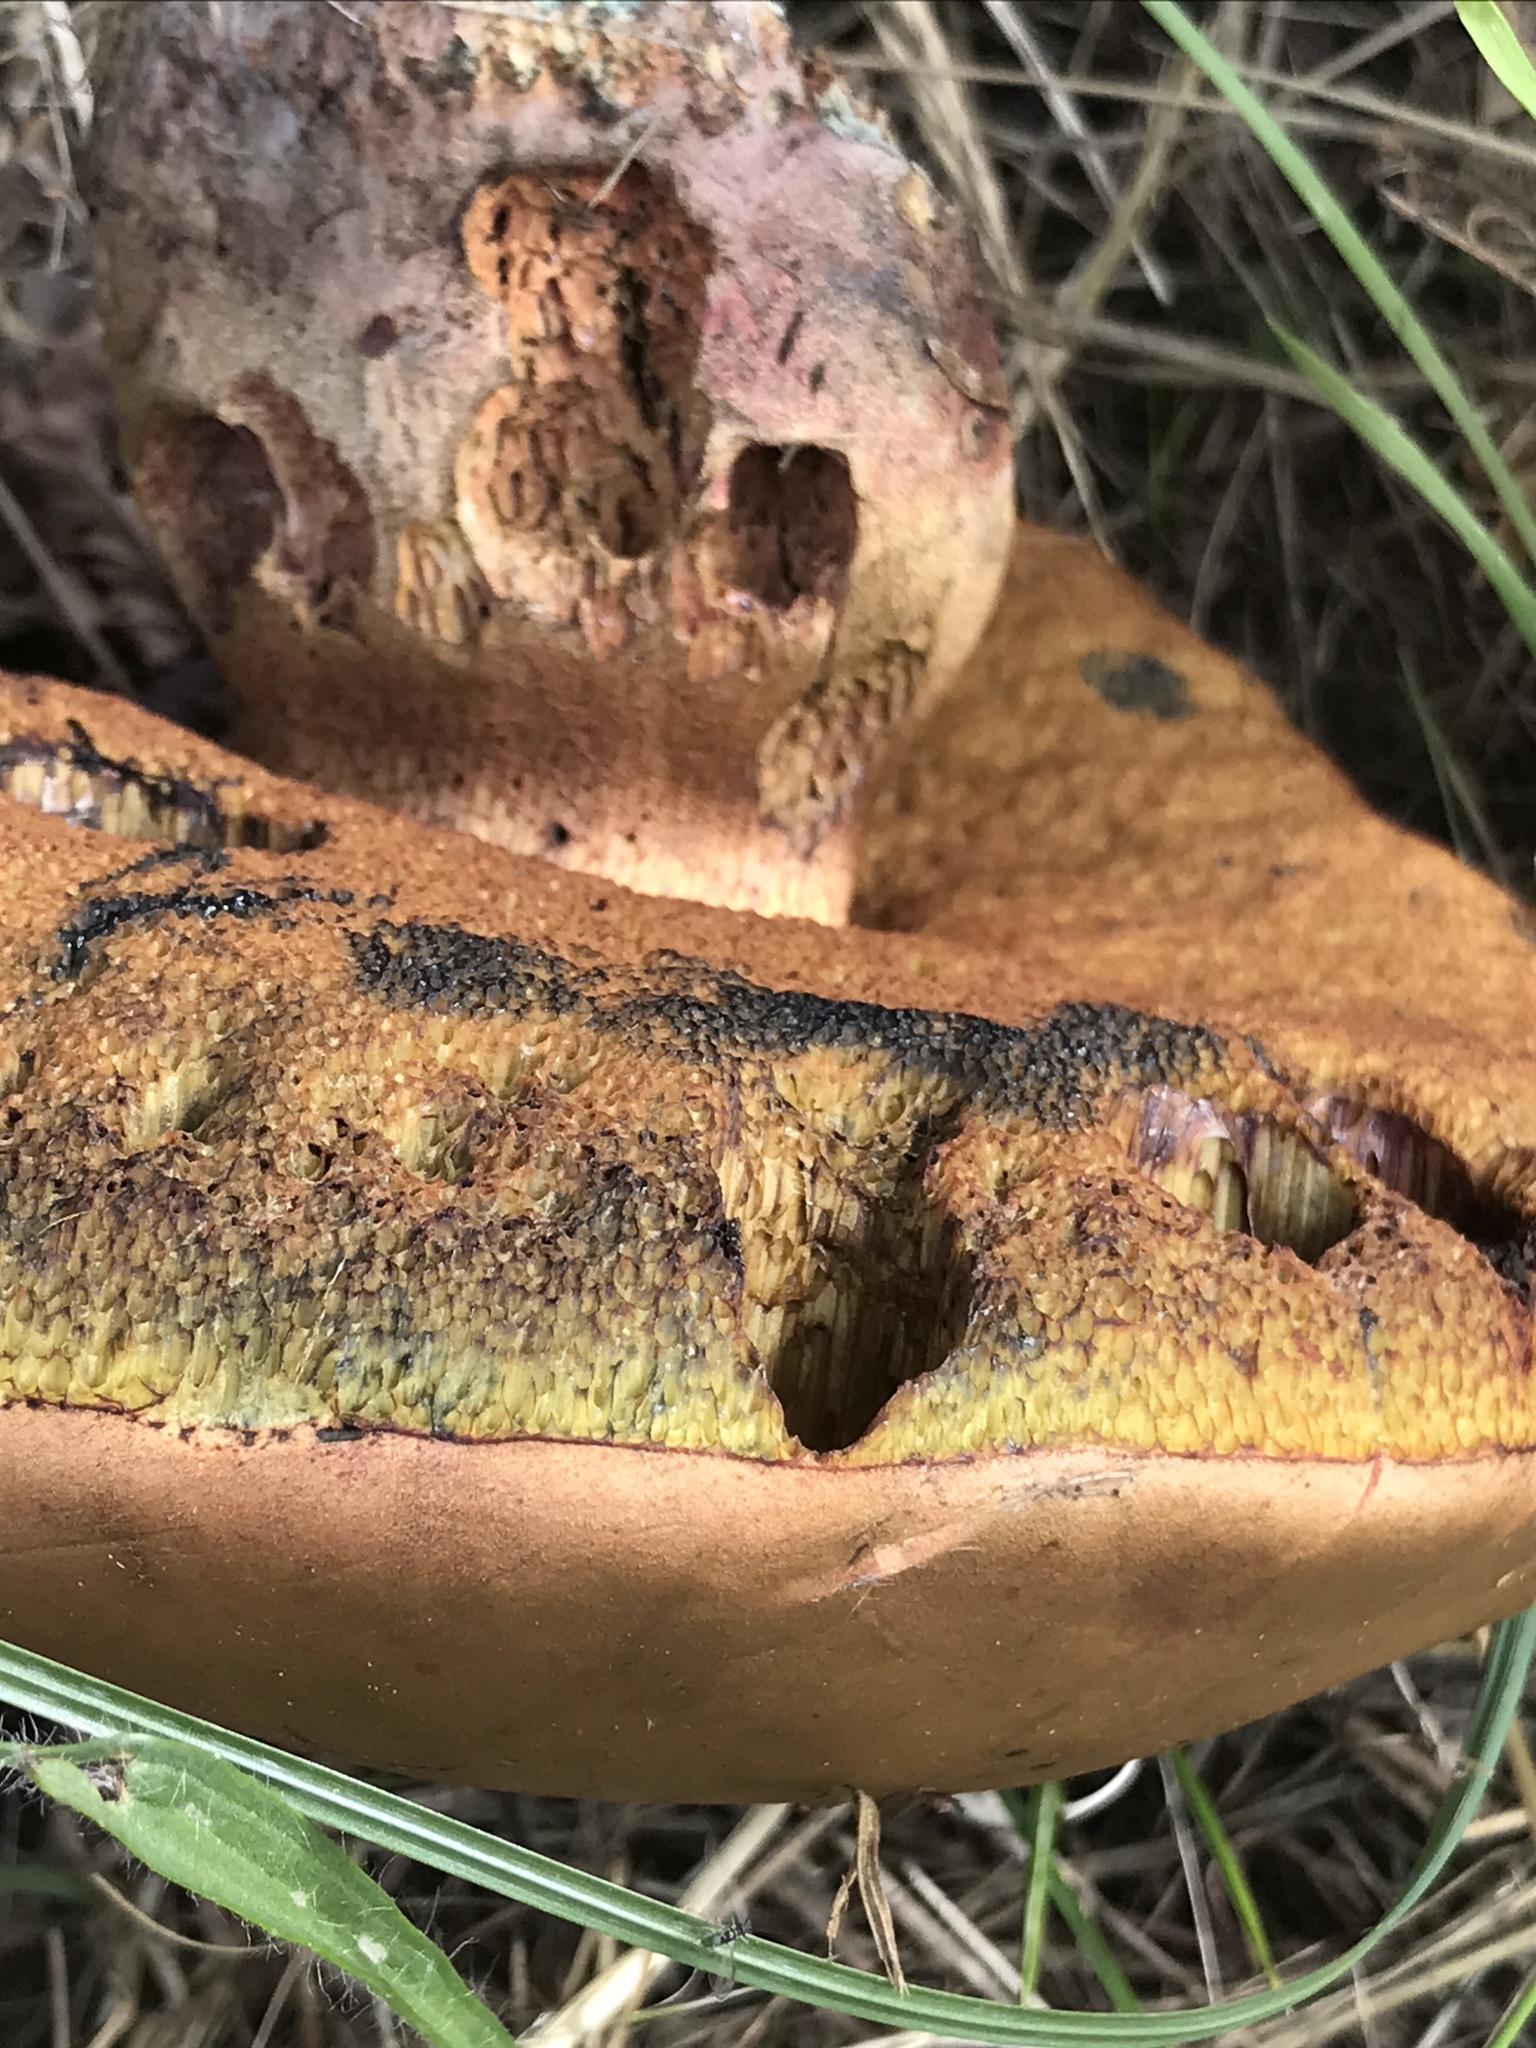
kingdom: Fungi
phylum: Basidiomycota
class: Agaricomycetes
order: Boletales
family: Boletaceae
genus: Suillellus
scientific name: Suillellus luridus
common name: Lurid bolete
